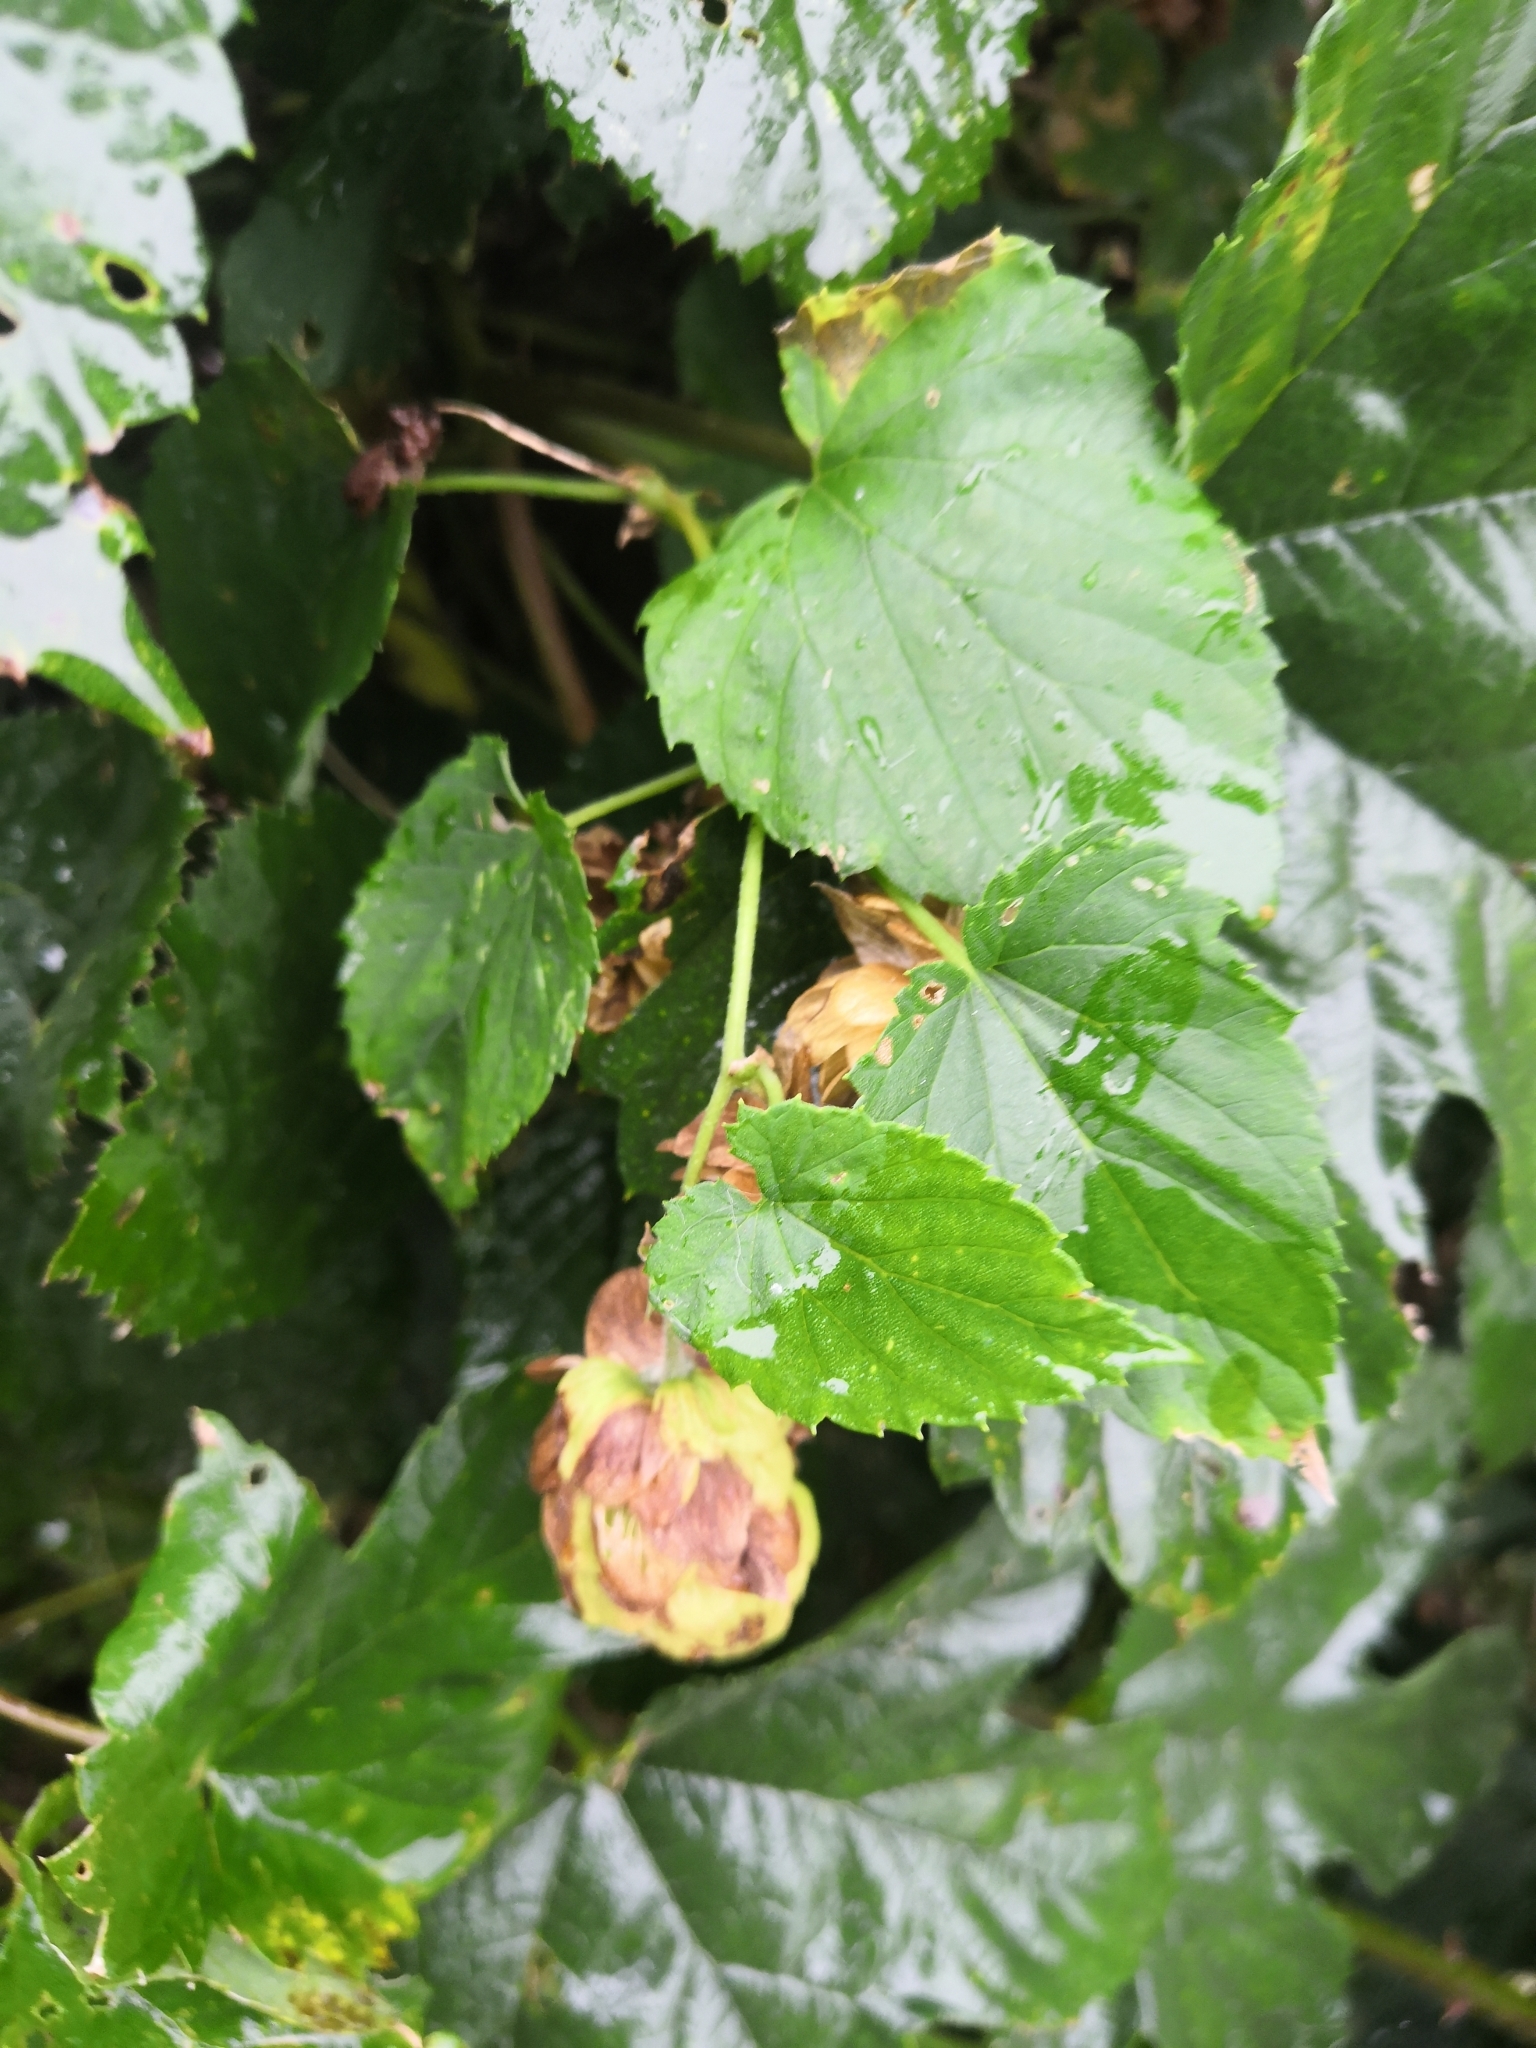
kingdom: Plantae
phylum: Tracheophyta
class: Magnoliopsida
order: Rosales
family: Cannabaceae
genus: Humulus
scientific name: Humulus lupulus
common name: Hop
